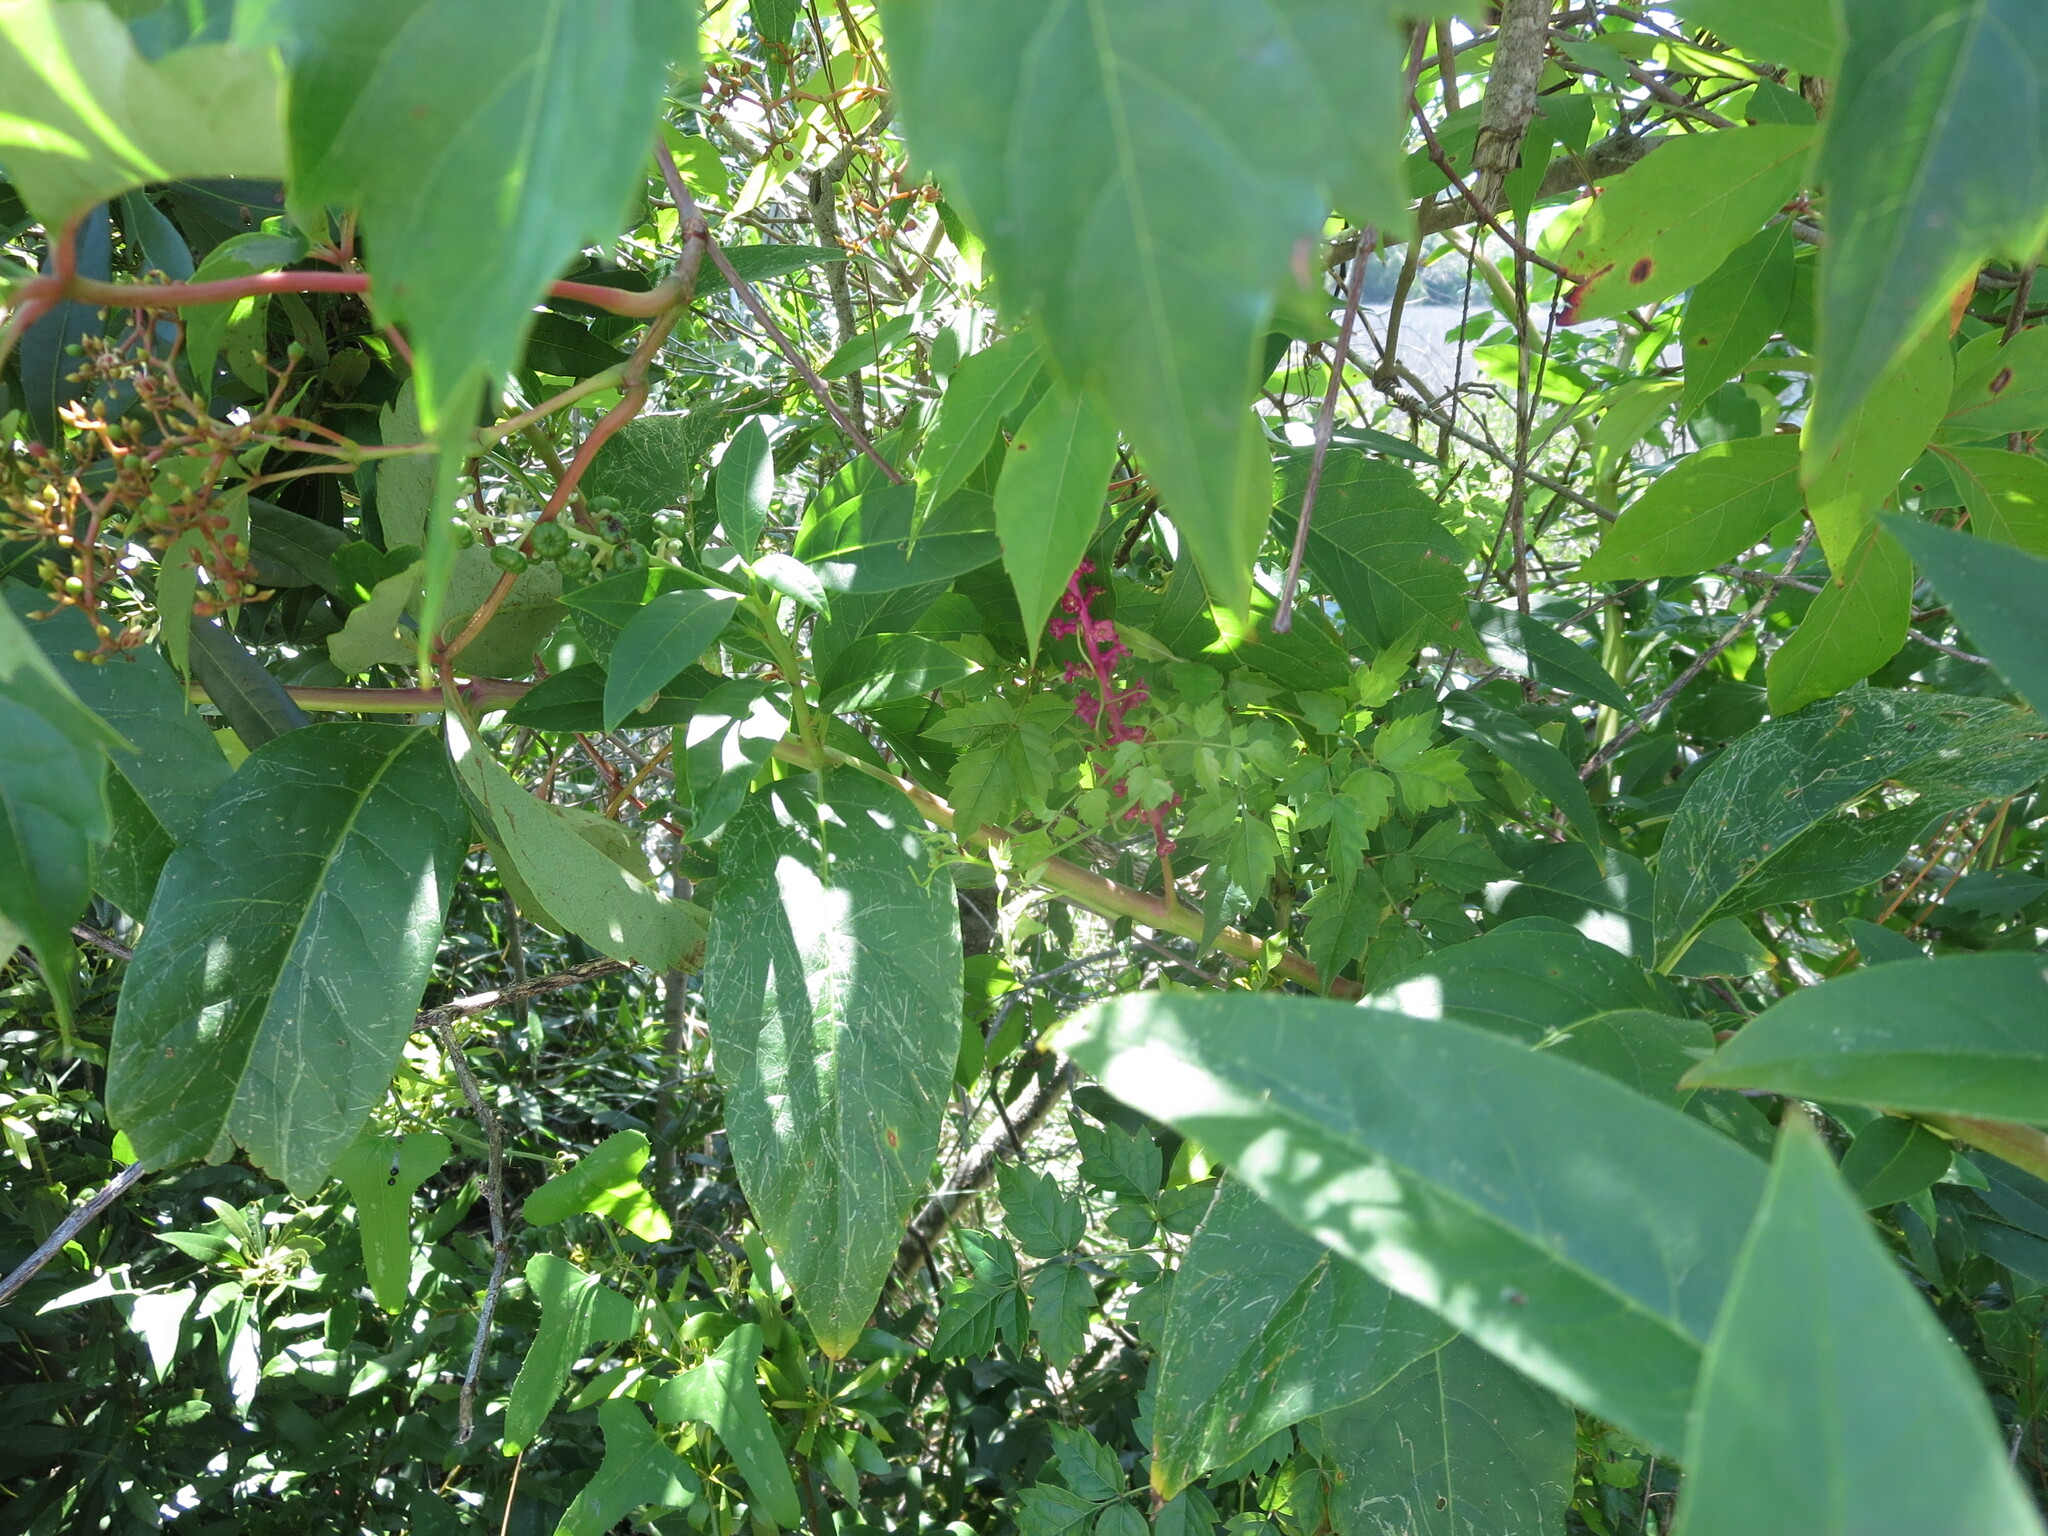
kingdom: Plantae
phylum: Tracheophyta
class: Magnoliopsida
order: Caryophyllales
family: Phytolaccaceae
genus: Phytolacca
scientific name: Phytolacca americana
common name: American pokeweed
